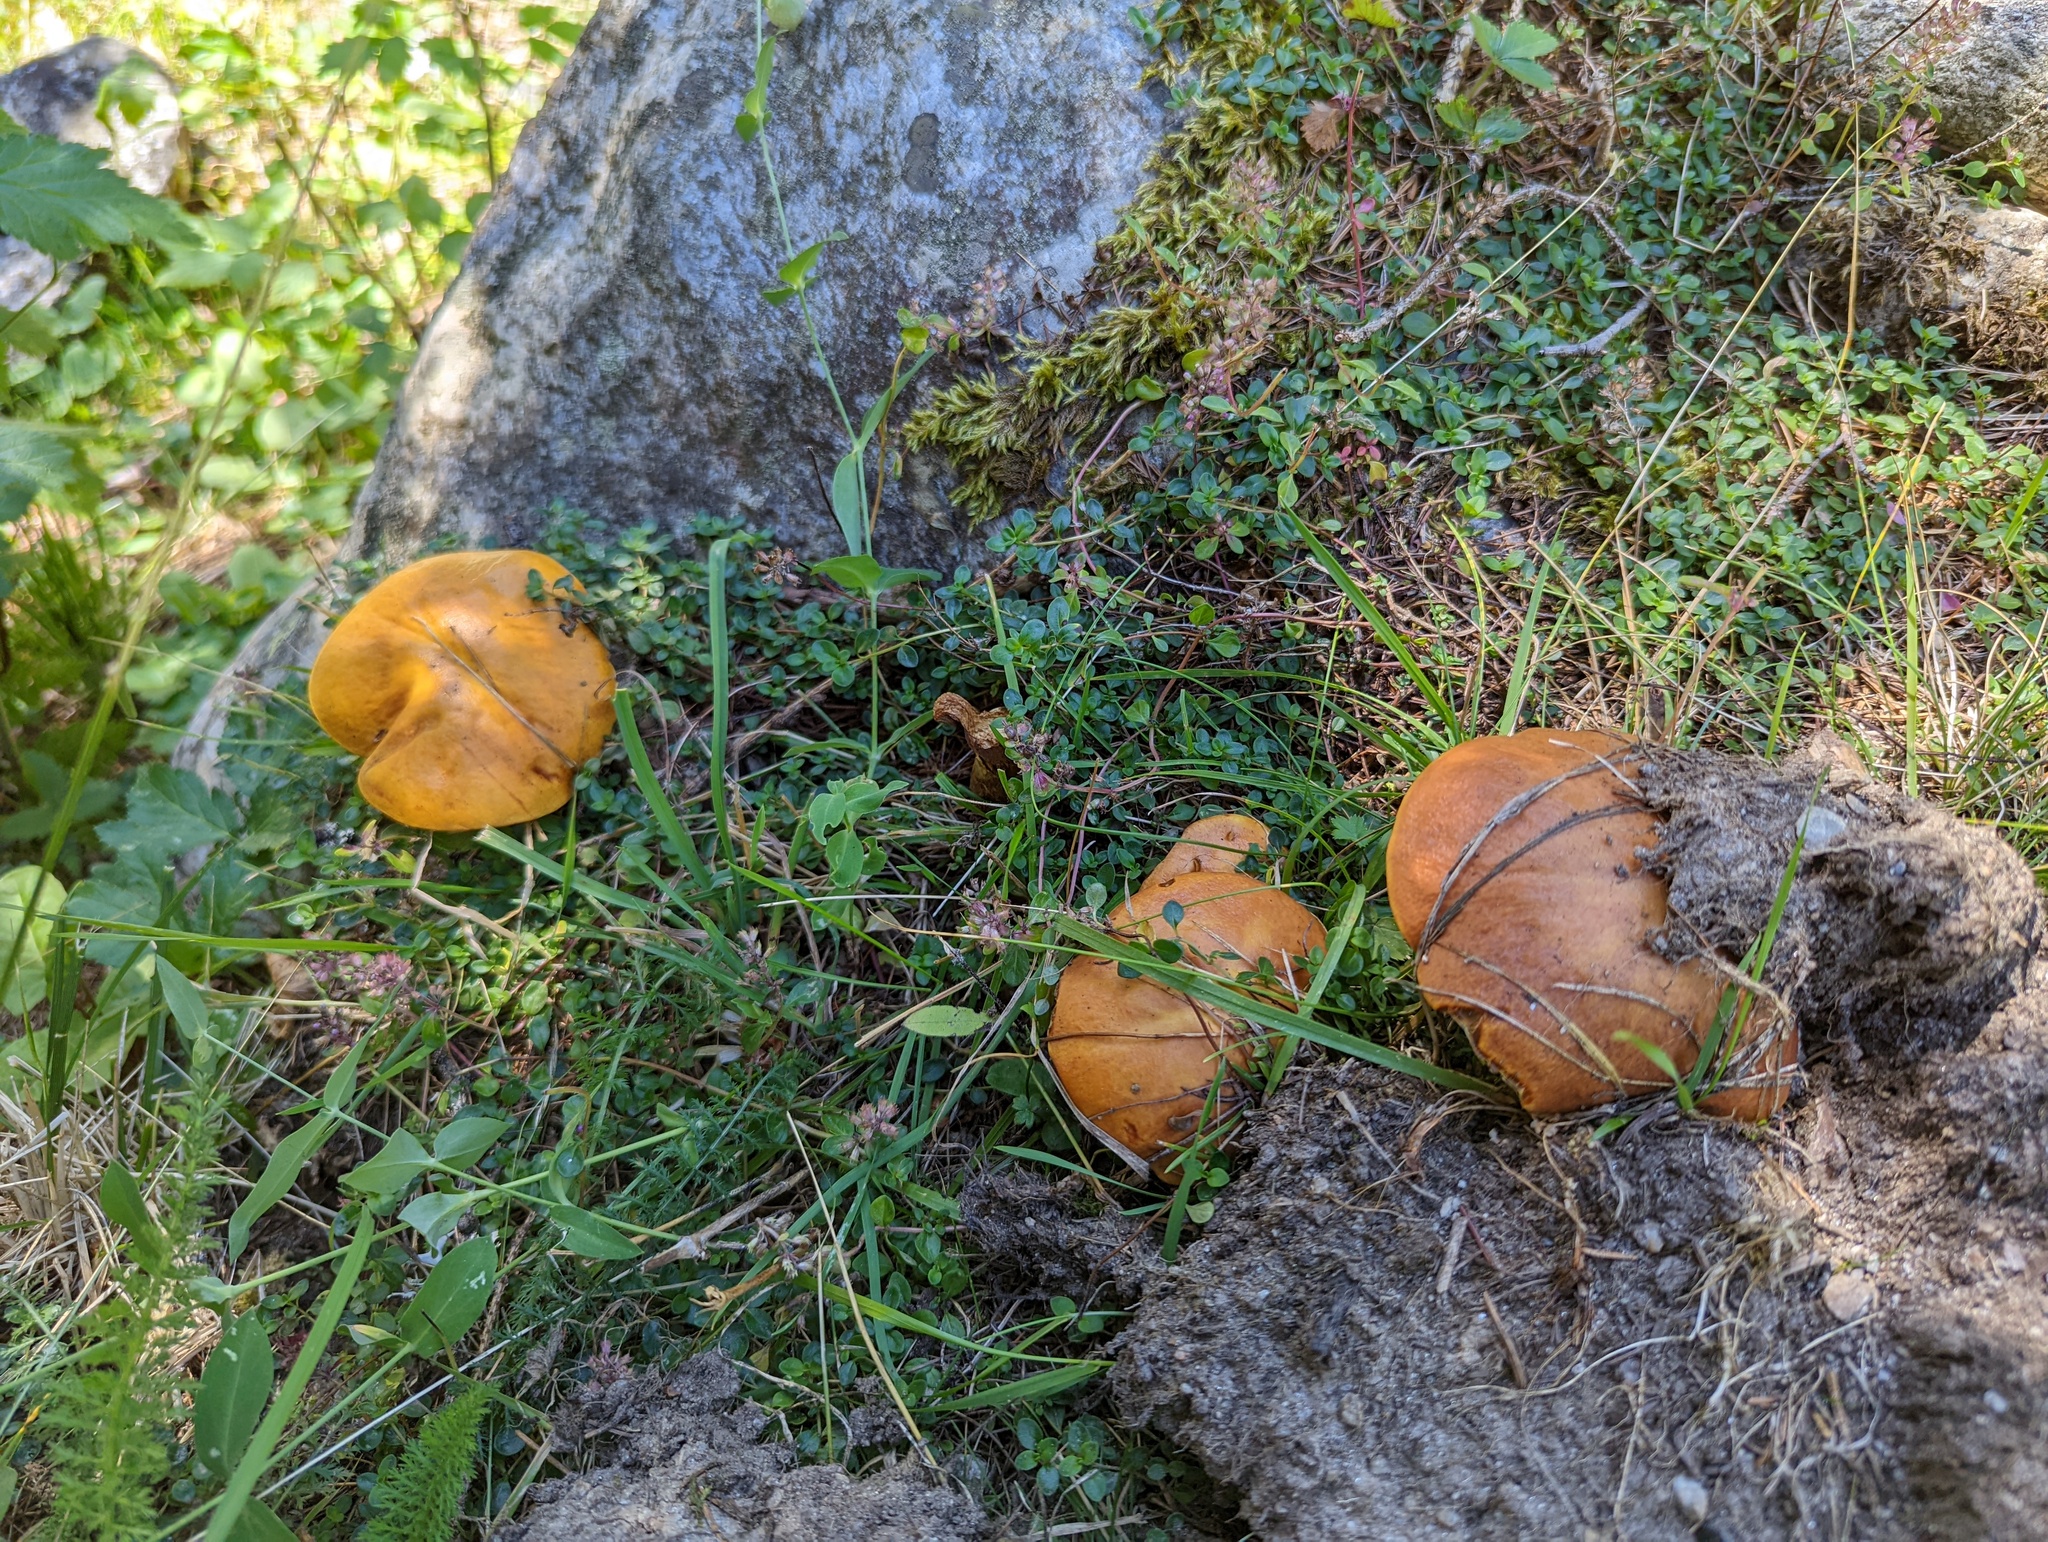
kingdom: Fungi
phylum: Basidiomycota
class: Agaricomycetes
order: Boletales
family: Suillaceae
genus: Suillus
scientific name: Suillus grevillei
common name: Larch bolete
